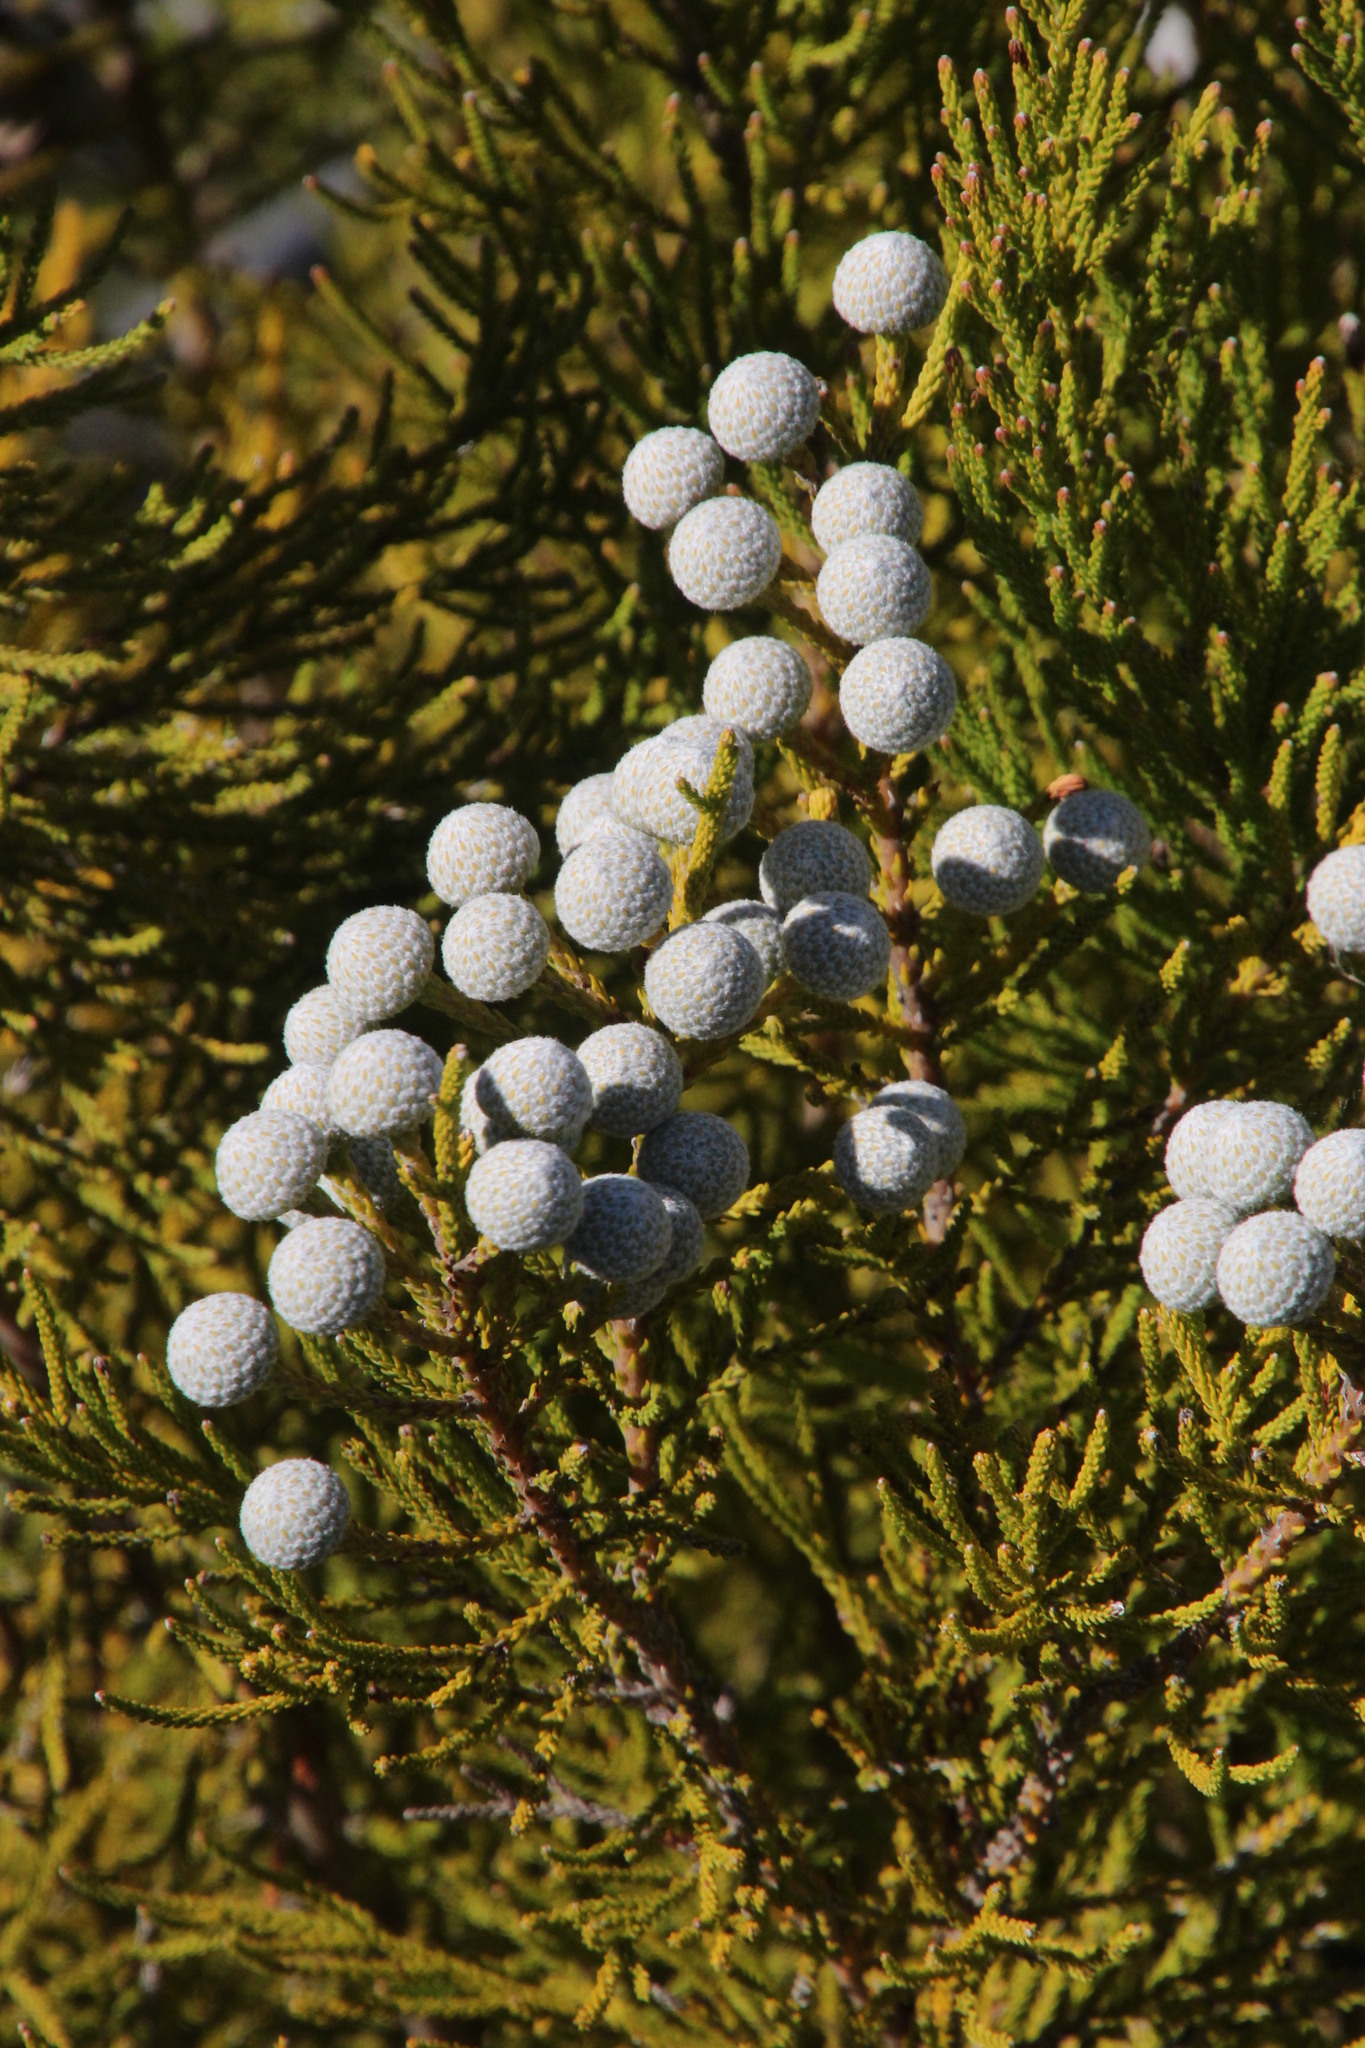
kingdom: Plantae
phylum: Tracheophyta
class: Magnoliopsida
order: Bruniales
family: Bruniaceae
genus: Brunia
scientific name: Brunia noduliflora
